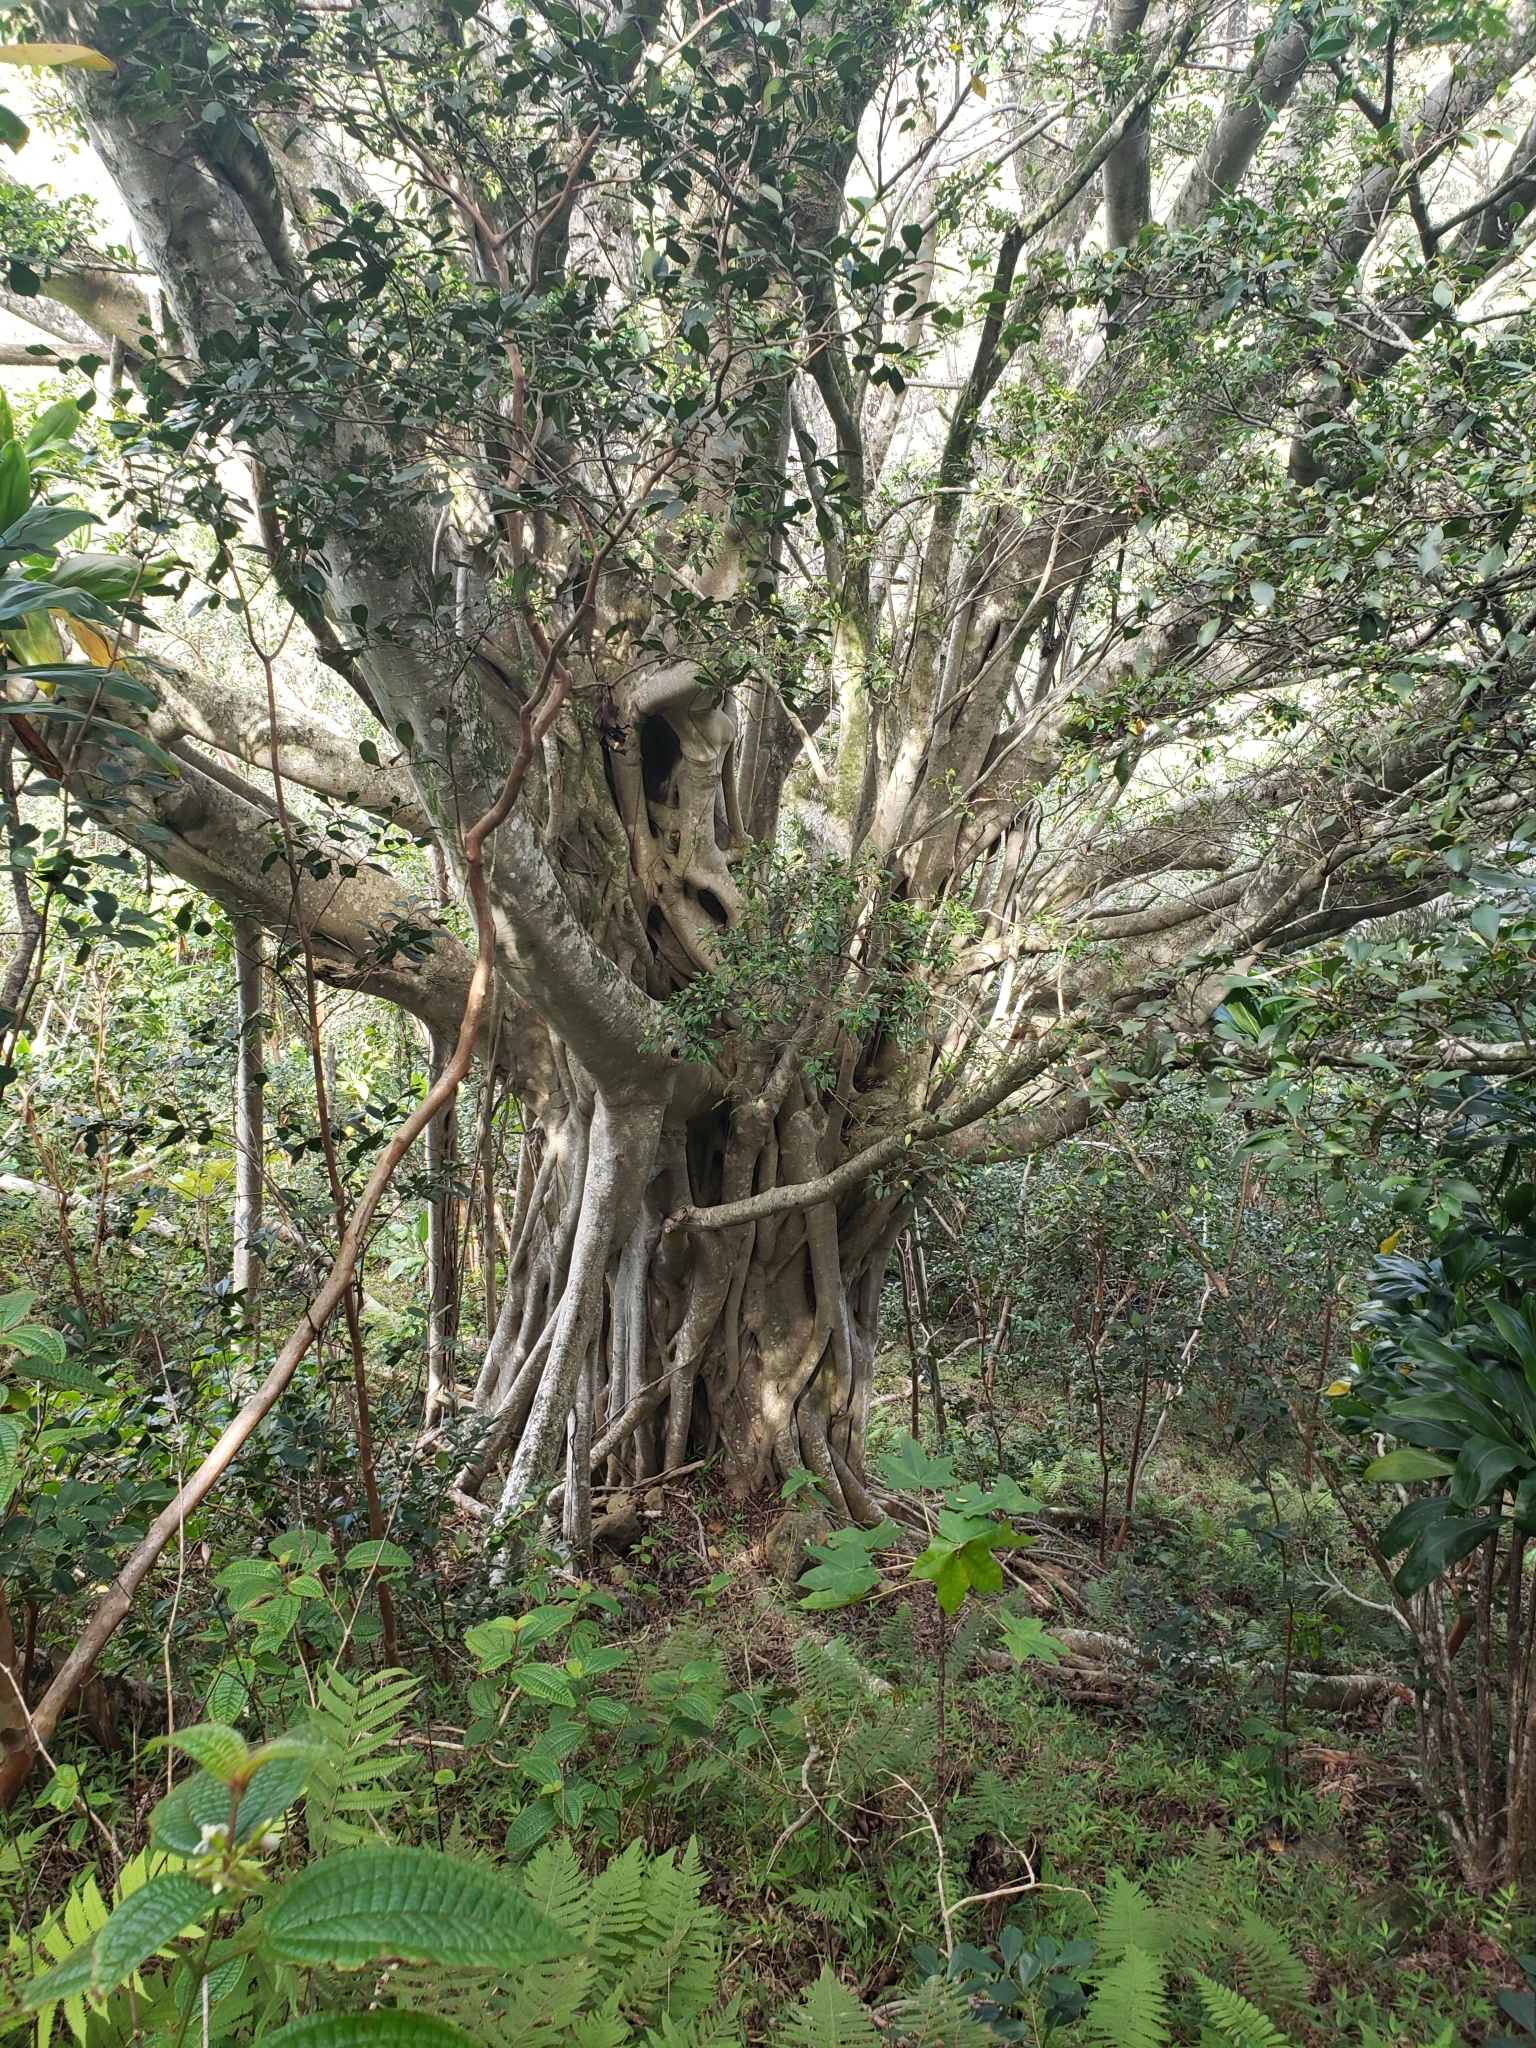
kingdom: Plantae
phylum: Tracheophyta
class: Magnoliopsida
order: Rosales
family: Moraceae
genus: Ficus
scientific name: Ficus microcarpa
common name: Chinese banyan
